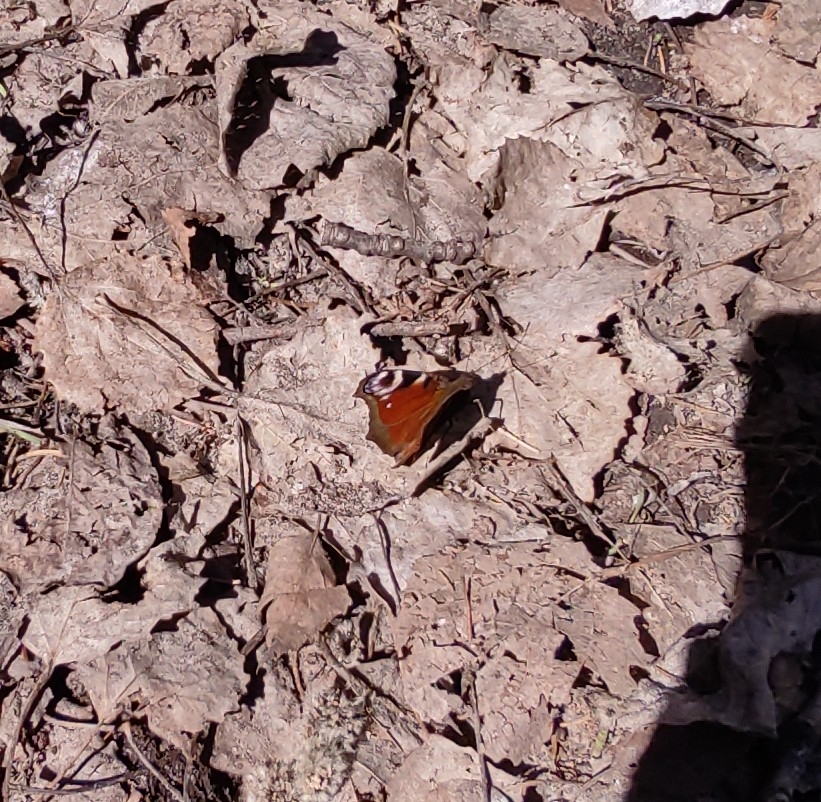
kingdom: Animalia
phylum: Arthropoda
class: Insecta
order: Lepidoptera
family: Nymphalidae
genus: Aglais
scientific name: Aglais io
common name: Peacock
